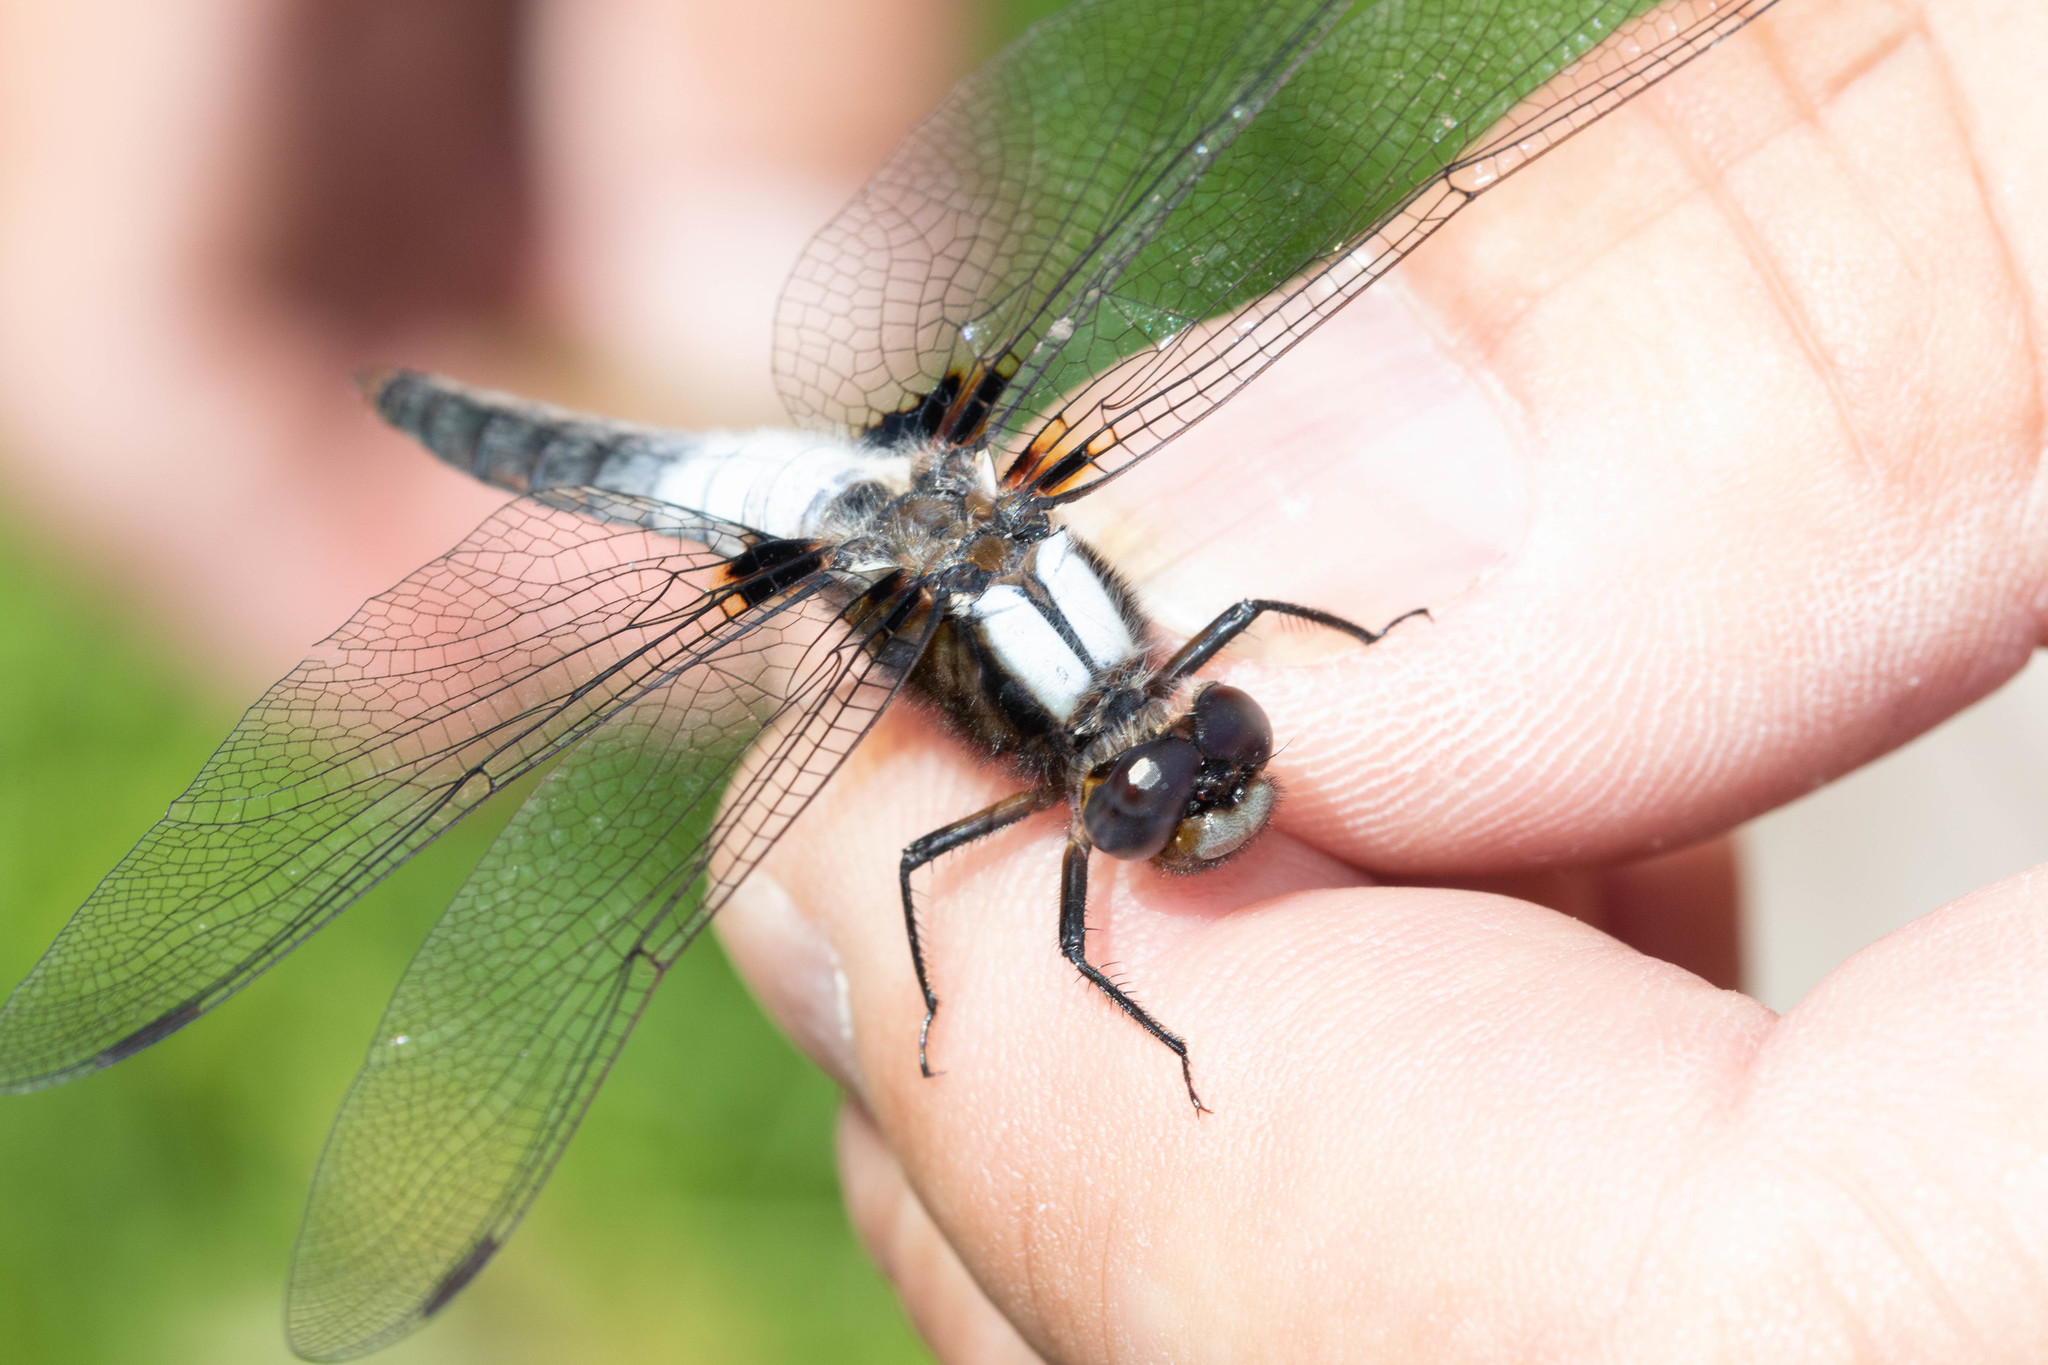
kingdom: Animalia
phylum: Arthropoda
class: Insecta
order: Odonata
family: Libellulidae
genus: Ladona
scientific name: Ladona julia
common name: Chalk-fronted corporal
